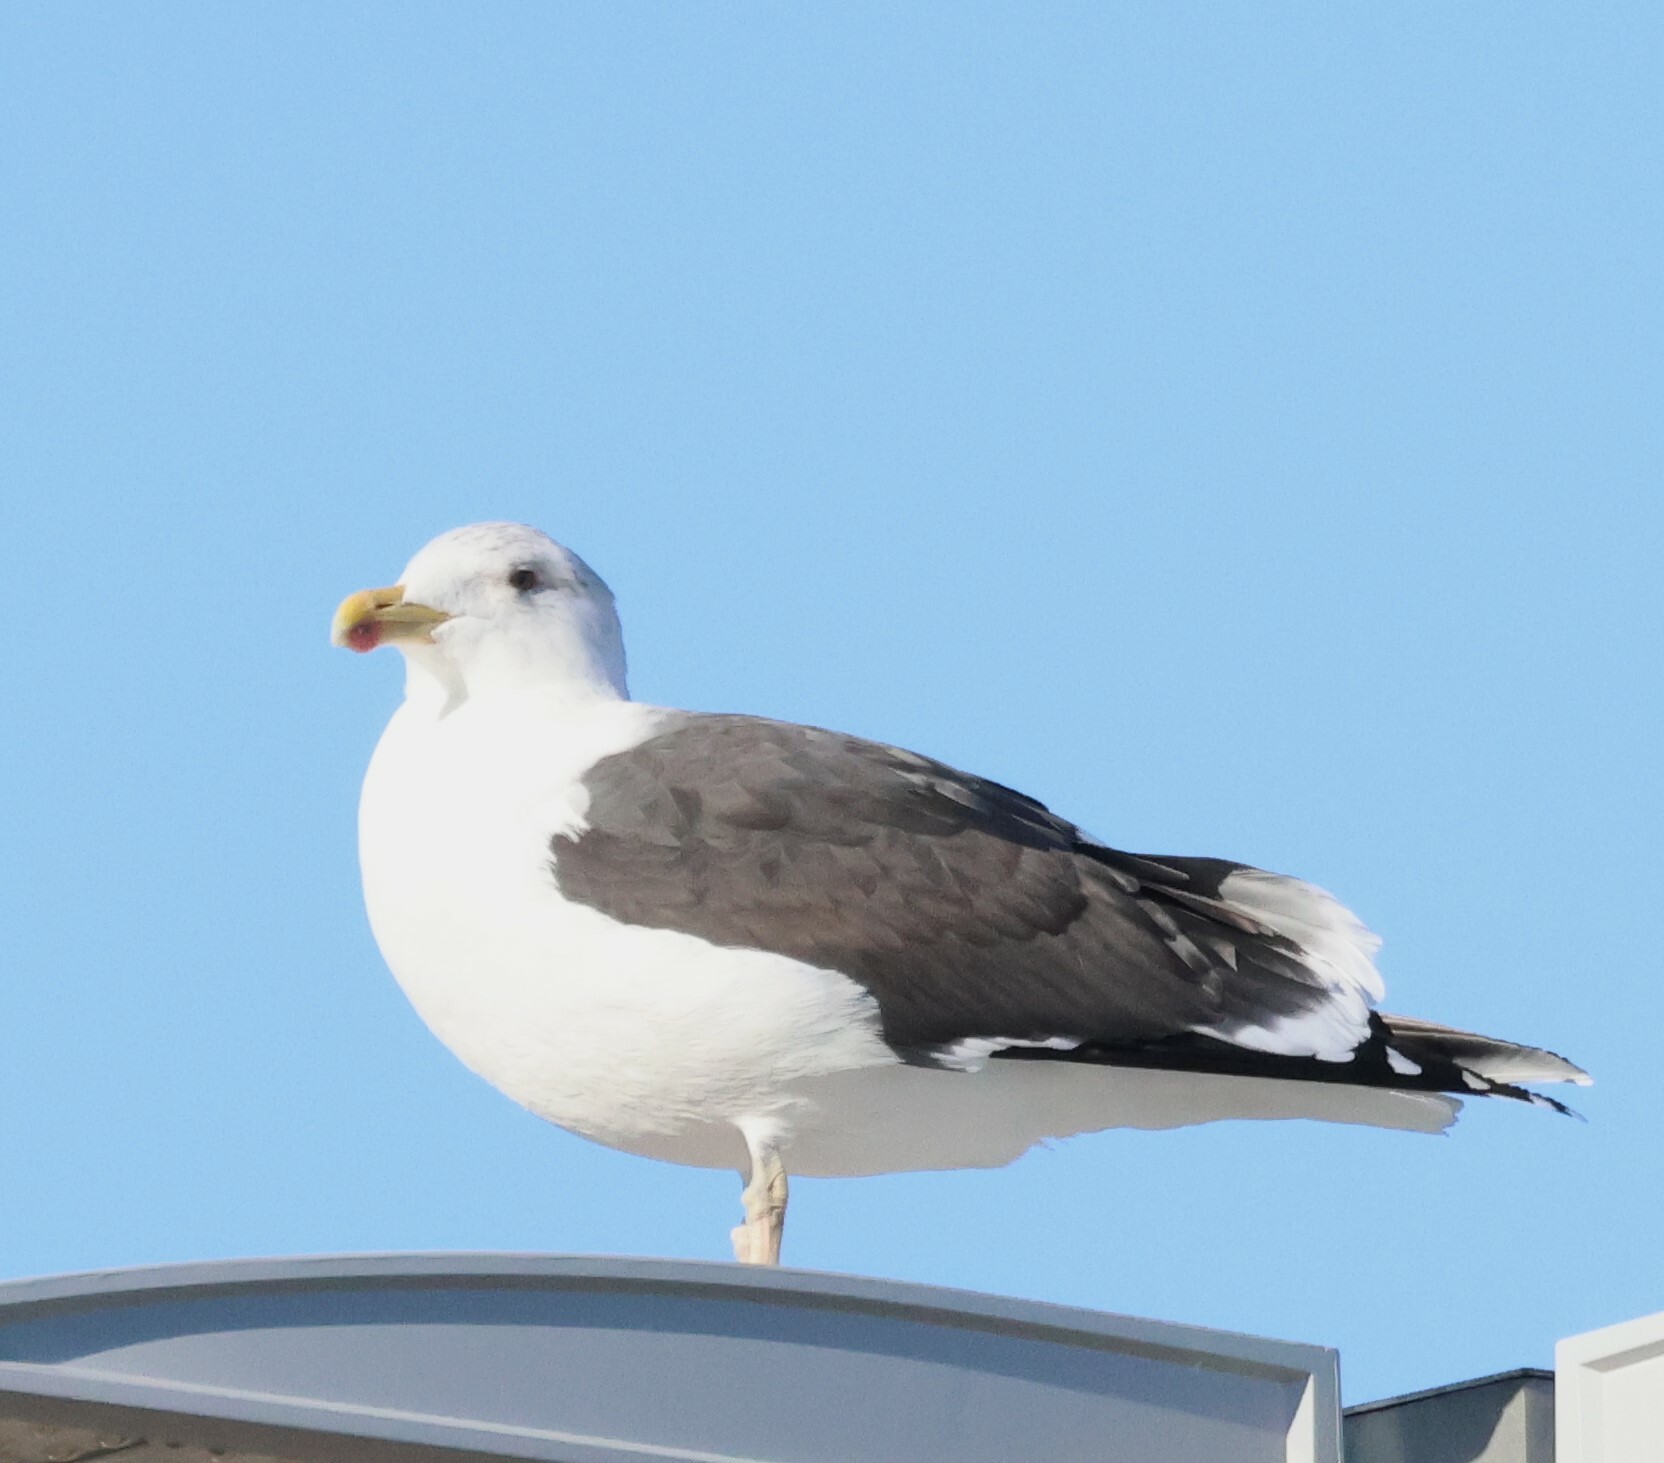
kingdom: Animalia
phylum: Chordata
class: Aves
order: Charadriiformes
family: Laridae
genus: Larus
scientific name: Larus marinus
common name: Great black-backed gull
